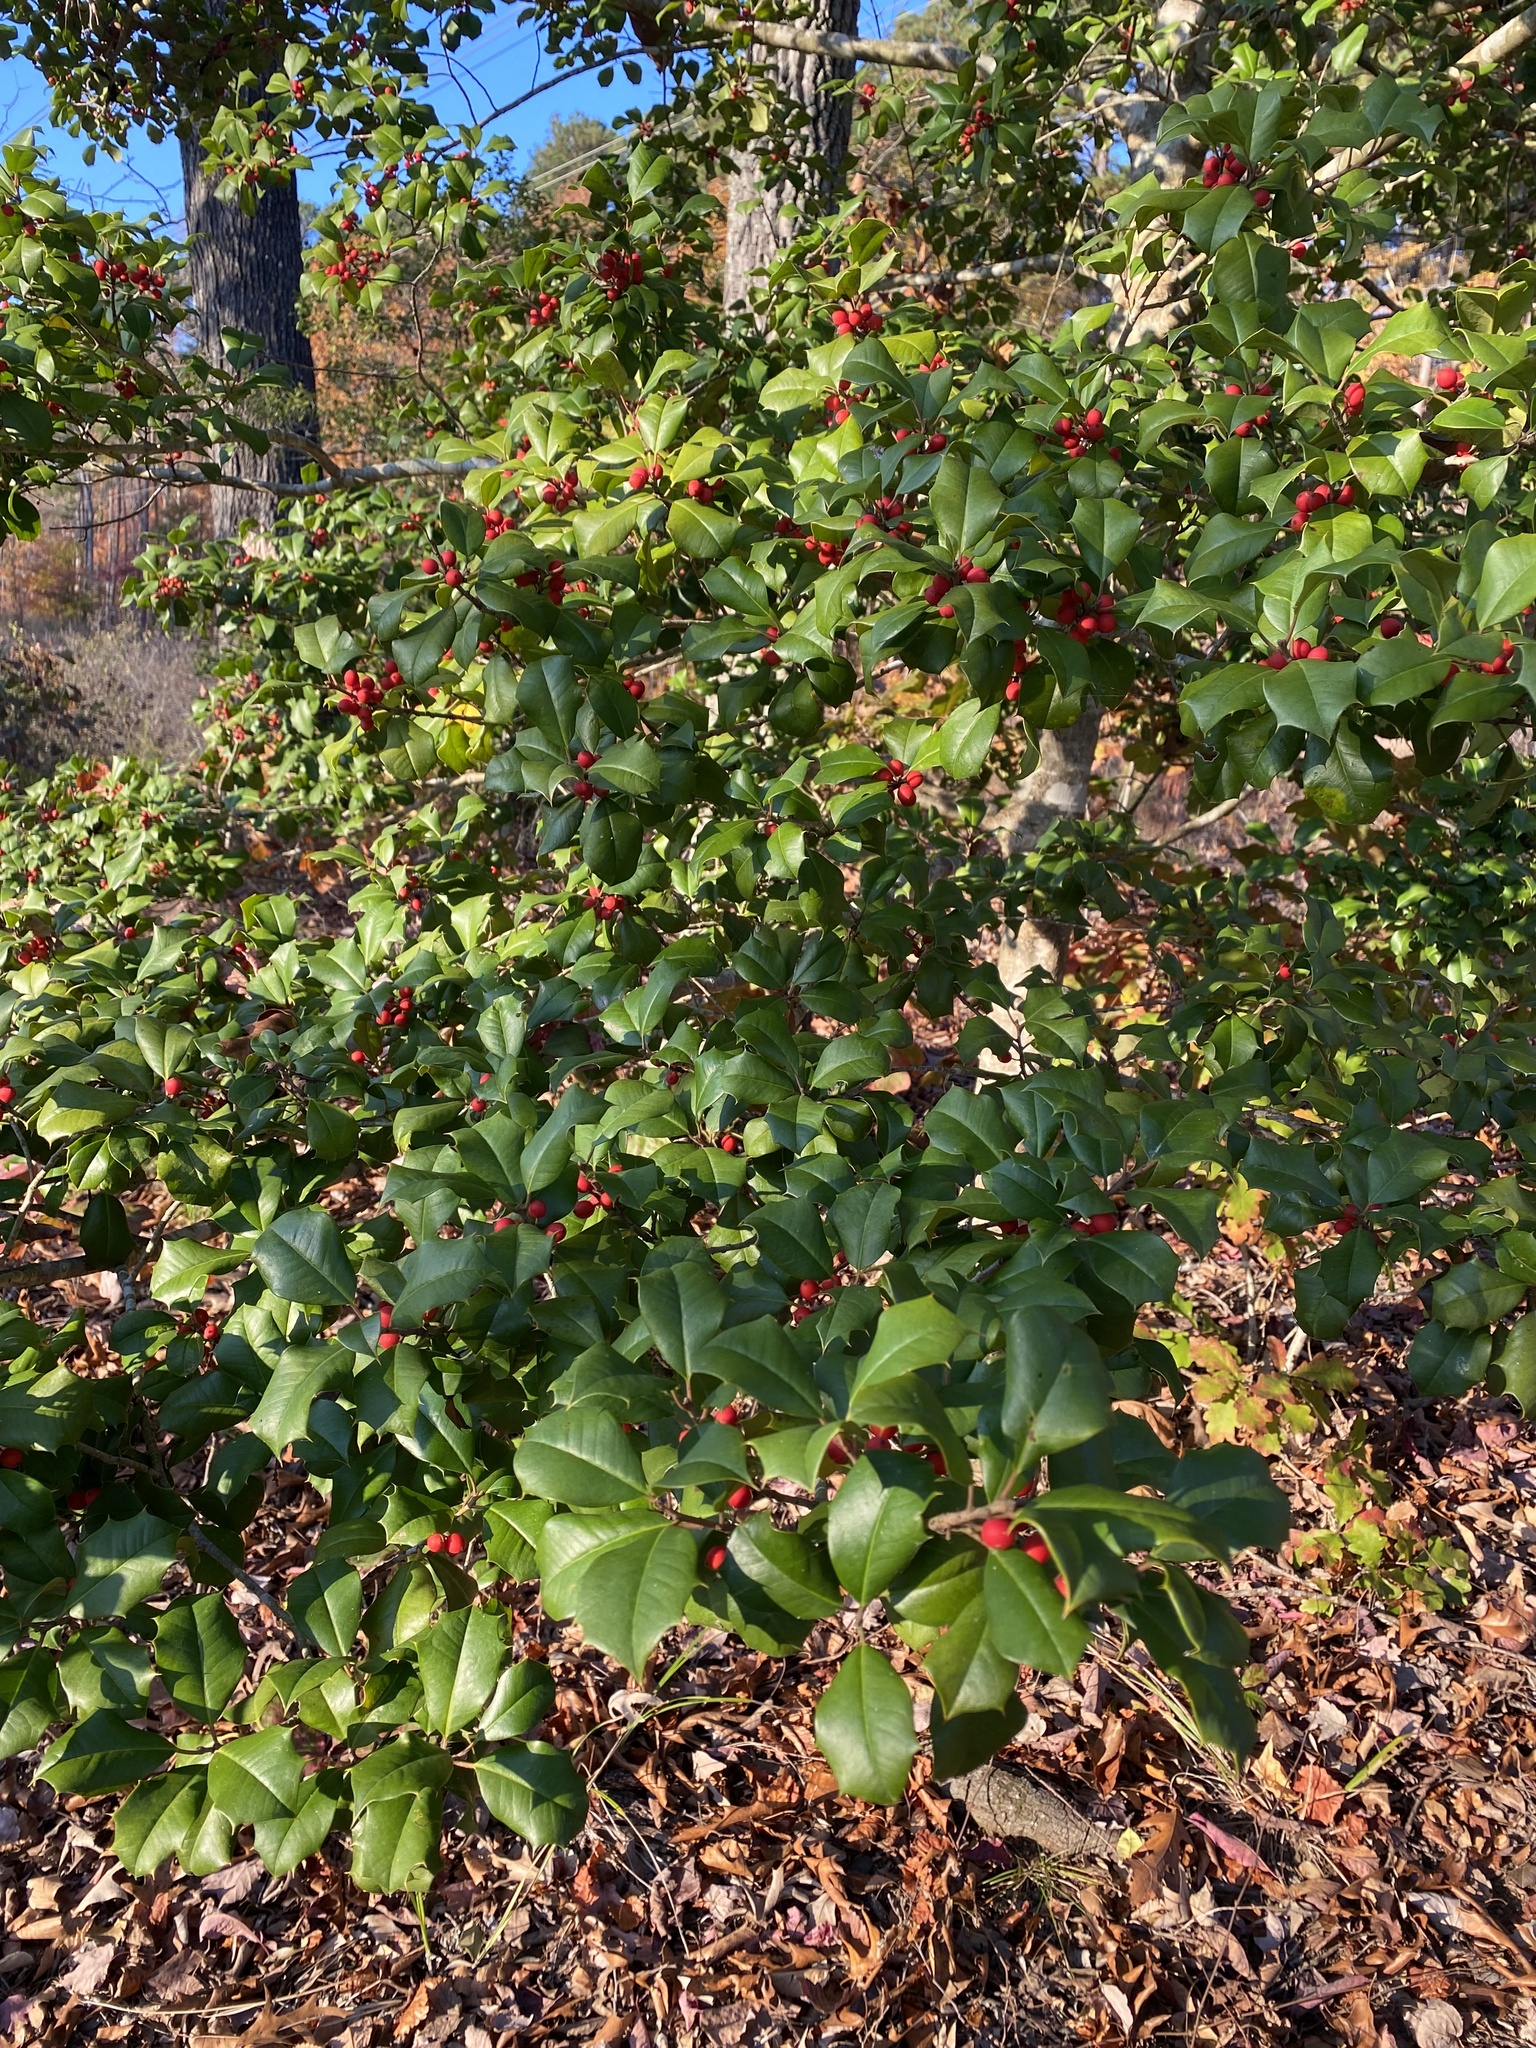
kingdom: Plantae
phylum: Tracheophyta
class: Magnoliopsida
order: Aquifoliales
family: Aquifoliaceae
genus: Ilex
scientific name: Ilex opaca
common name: American holly
